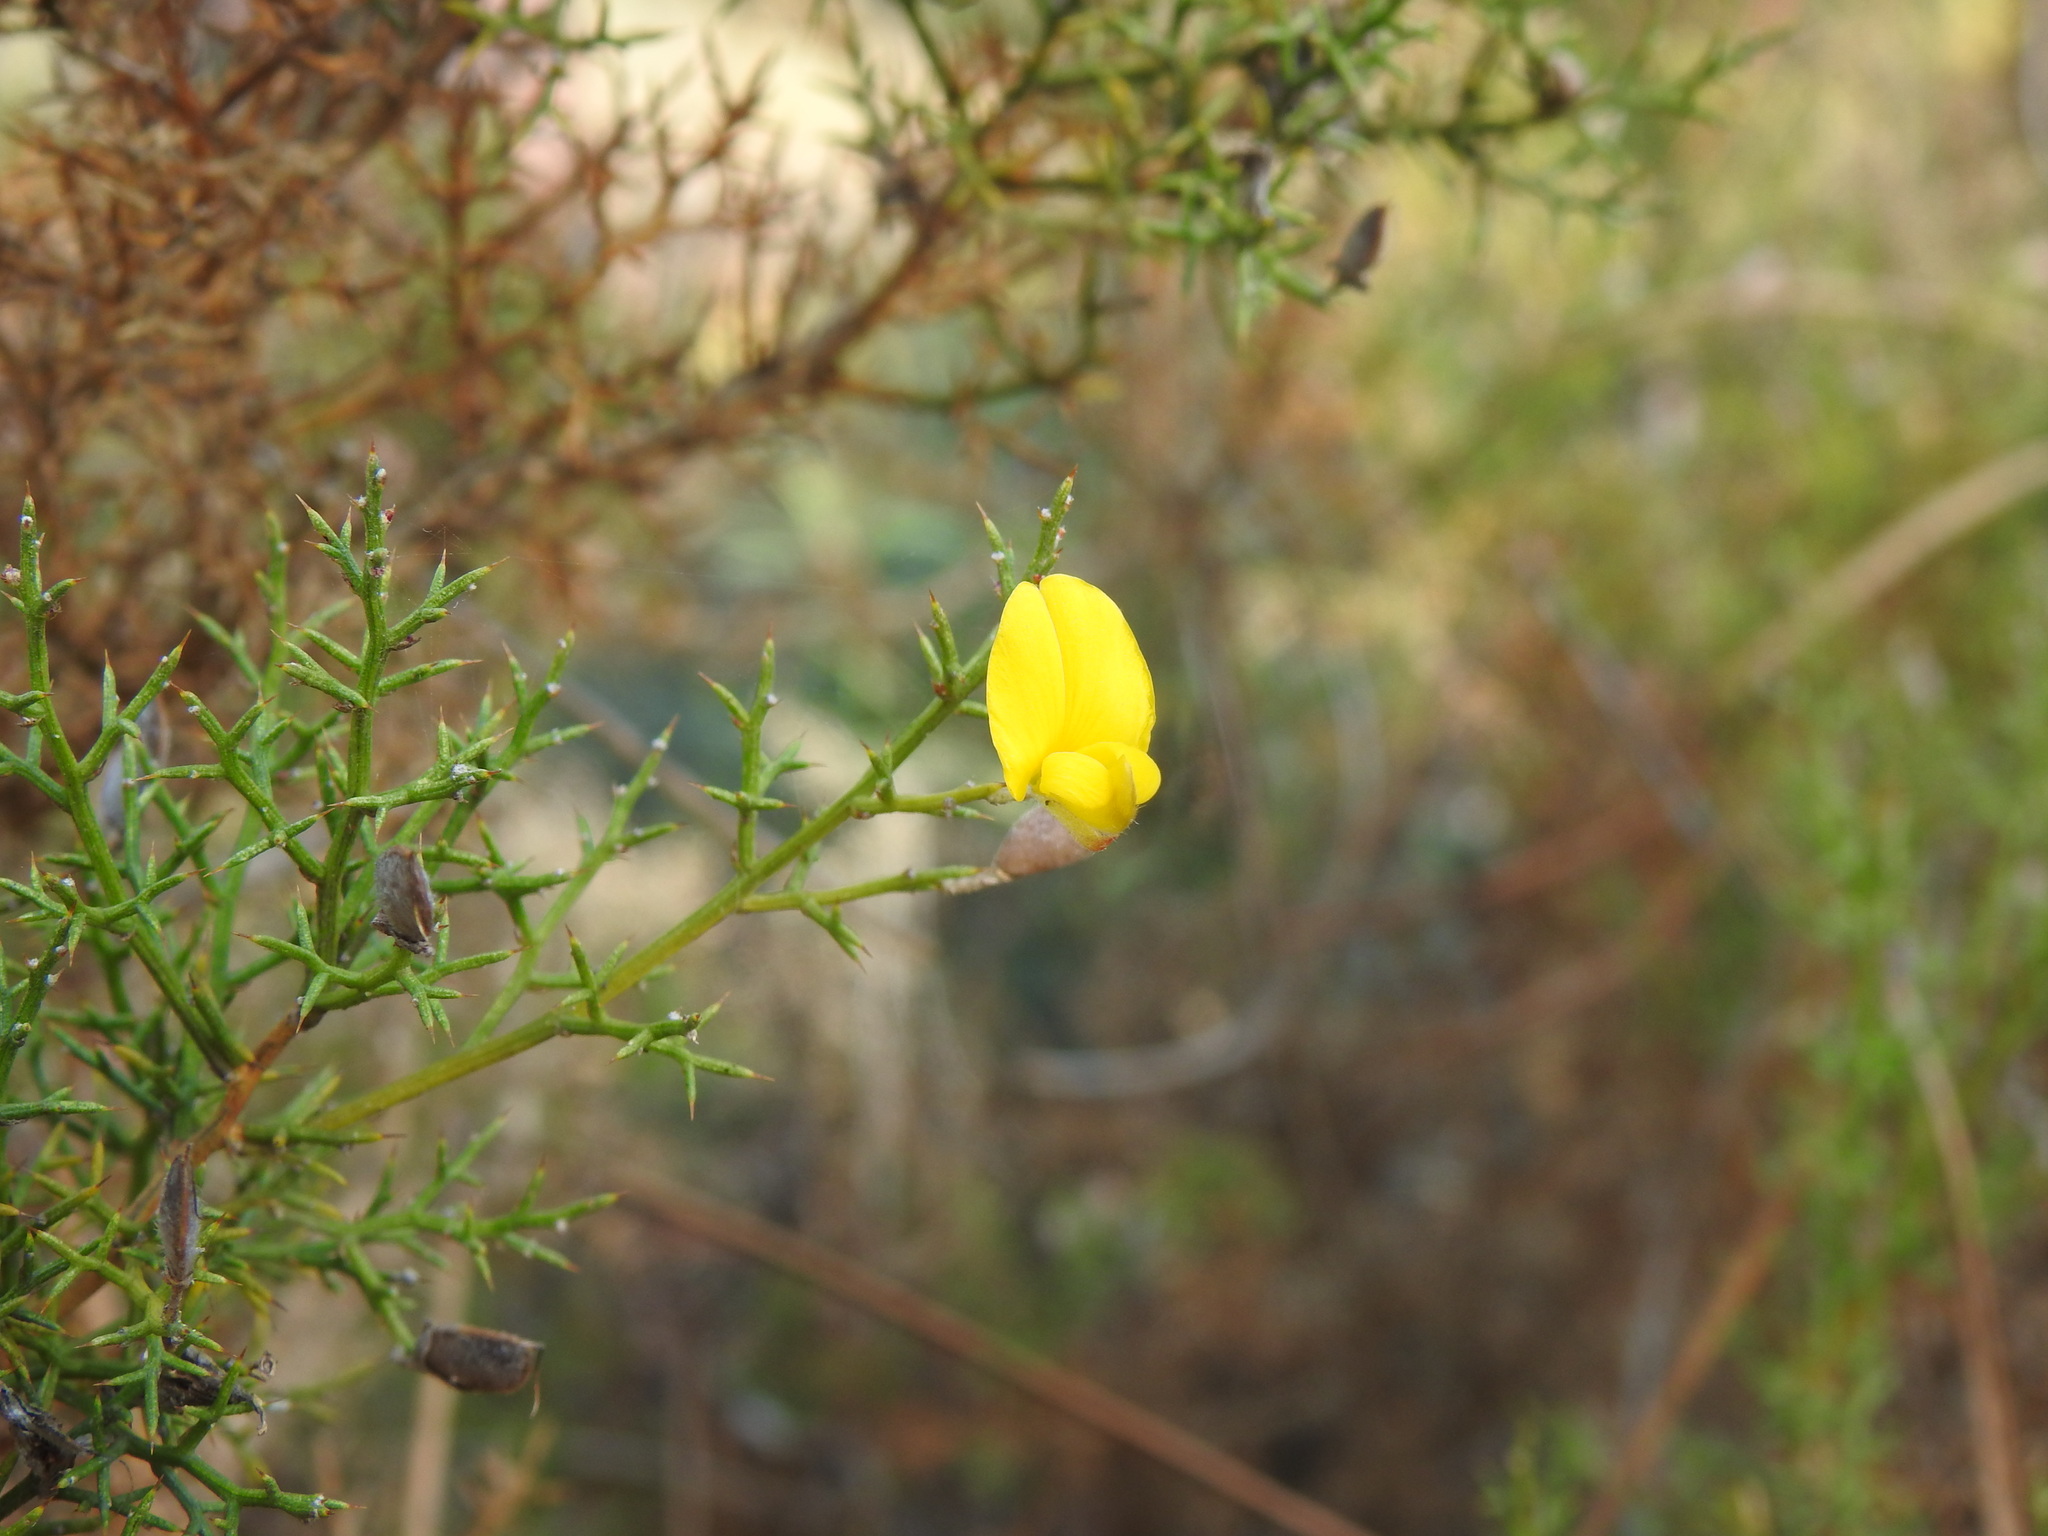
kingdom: Plantae
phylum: Tracheophyta
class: Magnoliopsida
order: Fabales
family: Fabaceae
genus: Stauracanthus
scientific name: Stauracanthus boivinii
